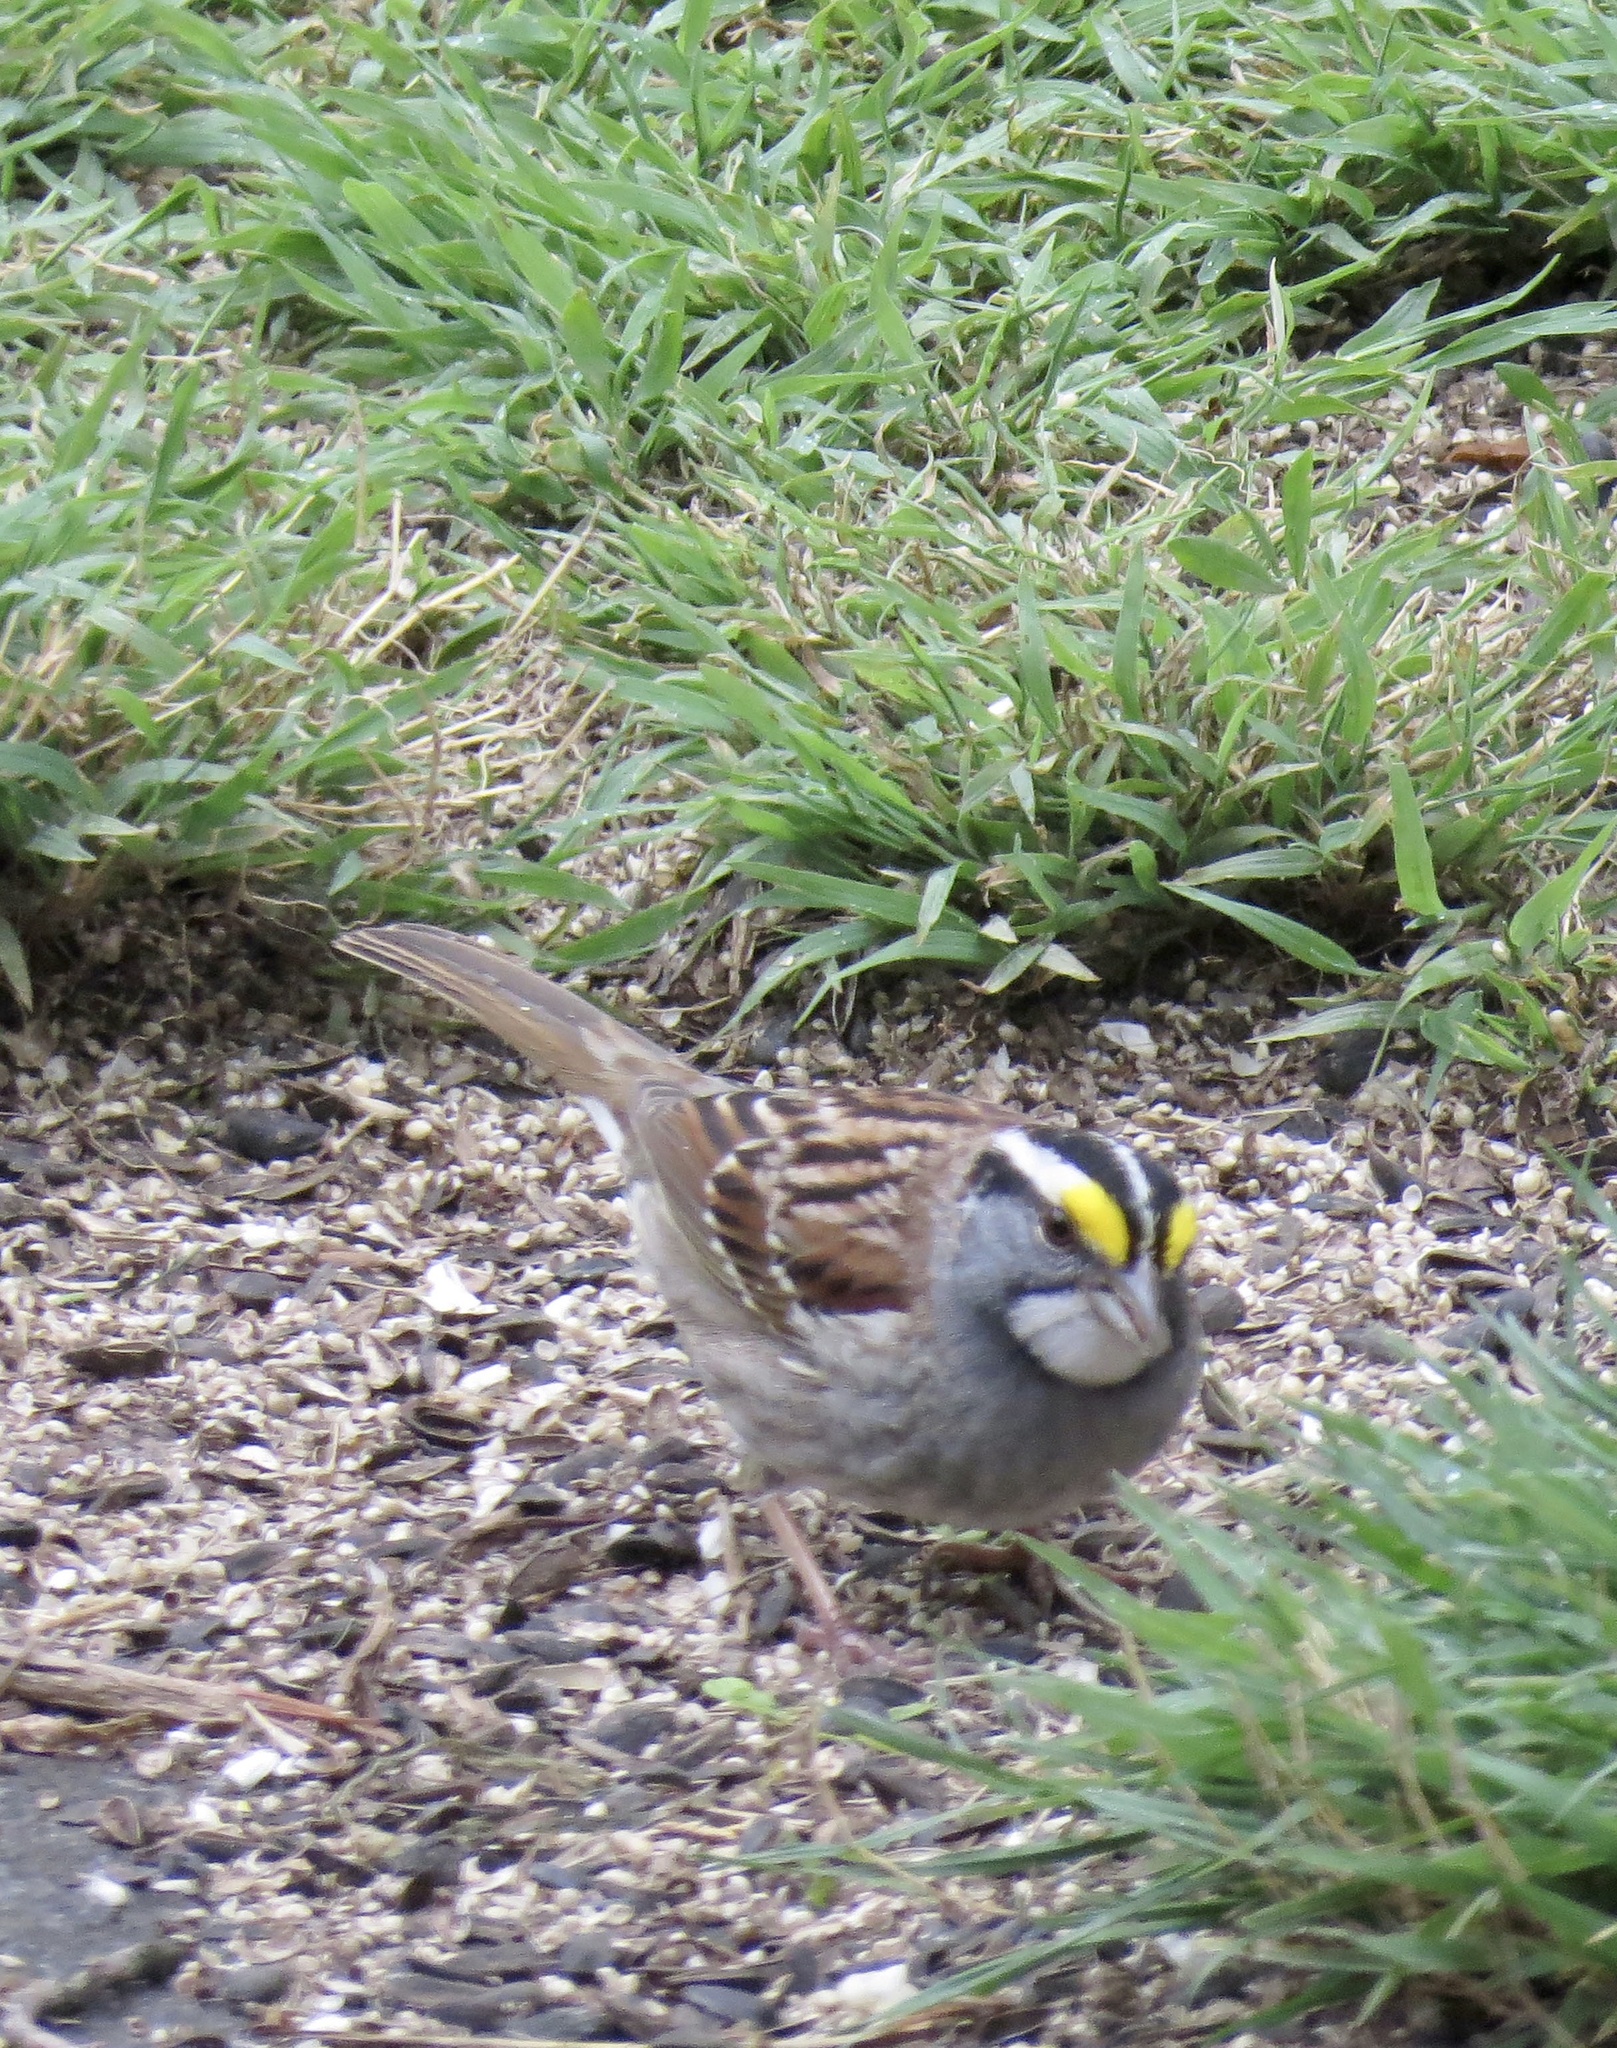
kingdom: Animalia
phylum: Chordata
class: Aves
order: Passeriformes
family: Passerellidae
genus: Zonotrichia
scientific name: Zonotrichia albicollis
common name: White-throated sparrow
